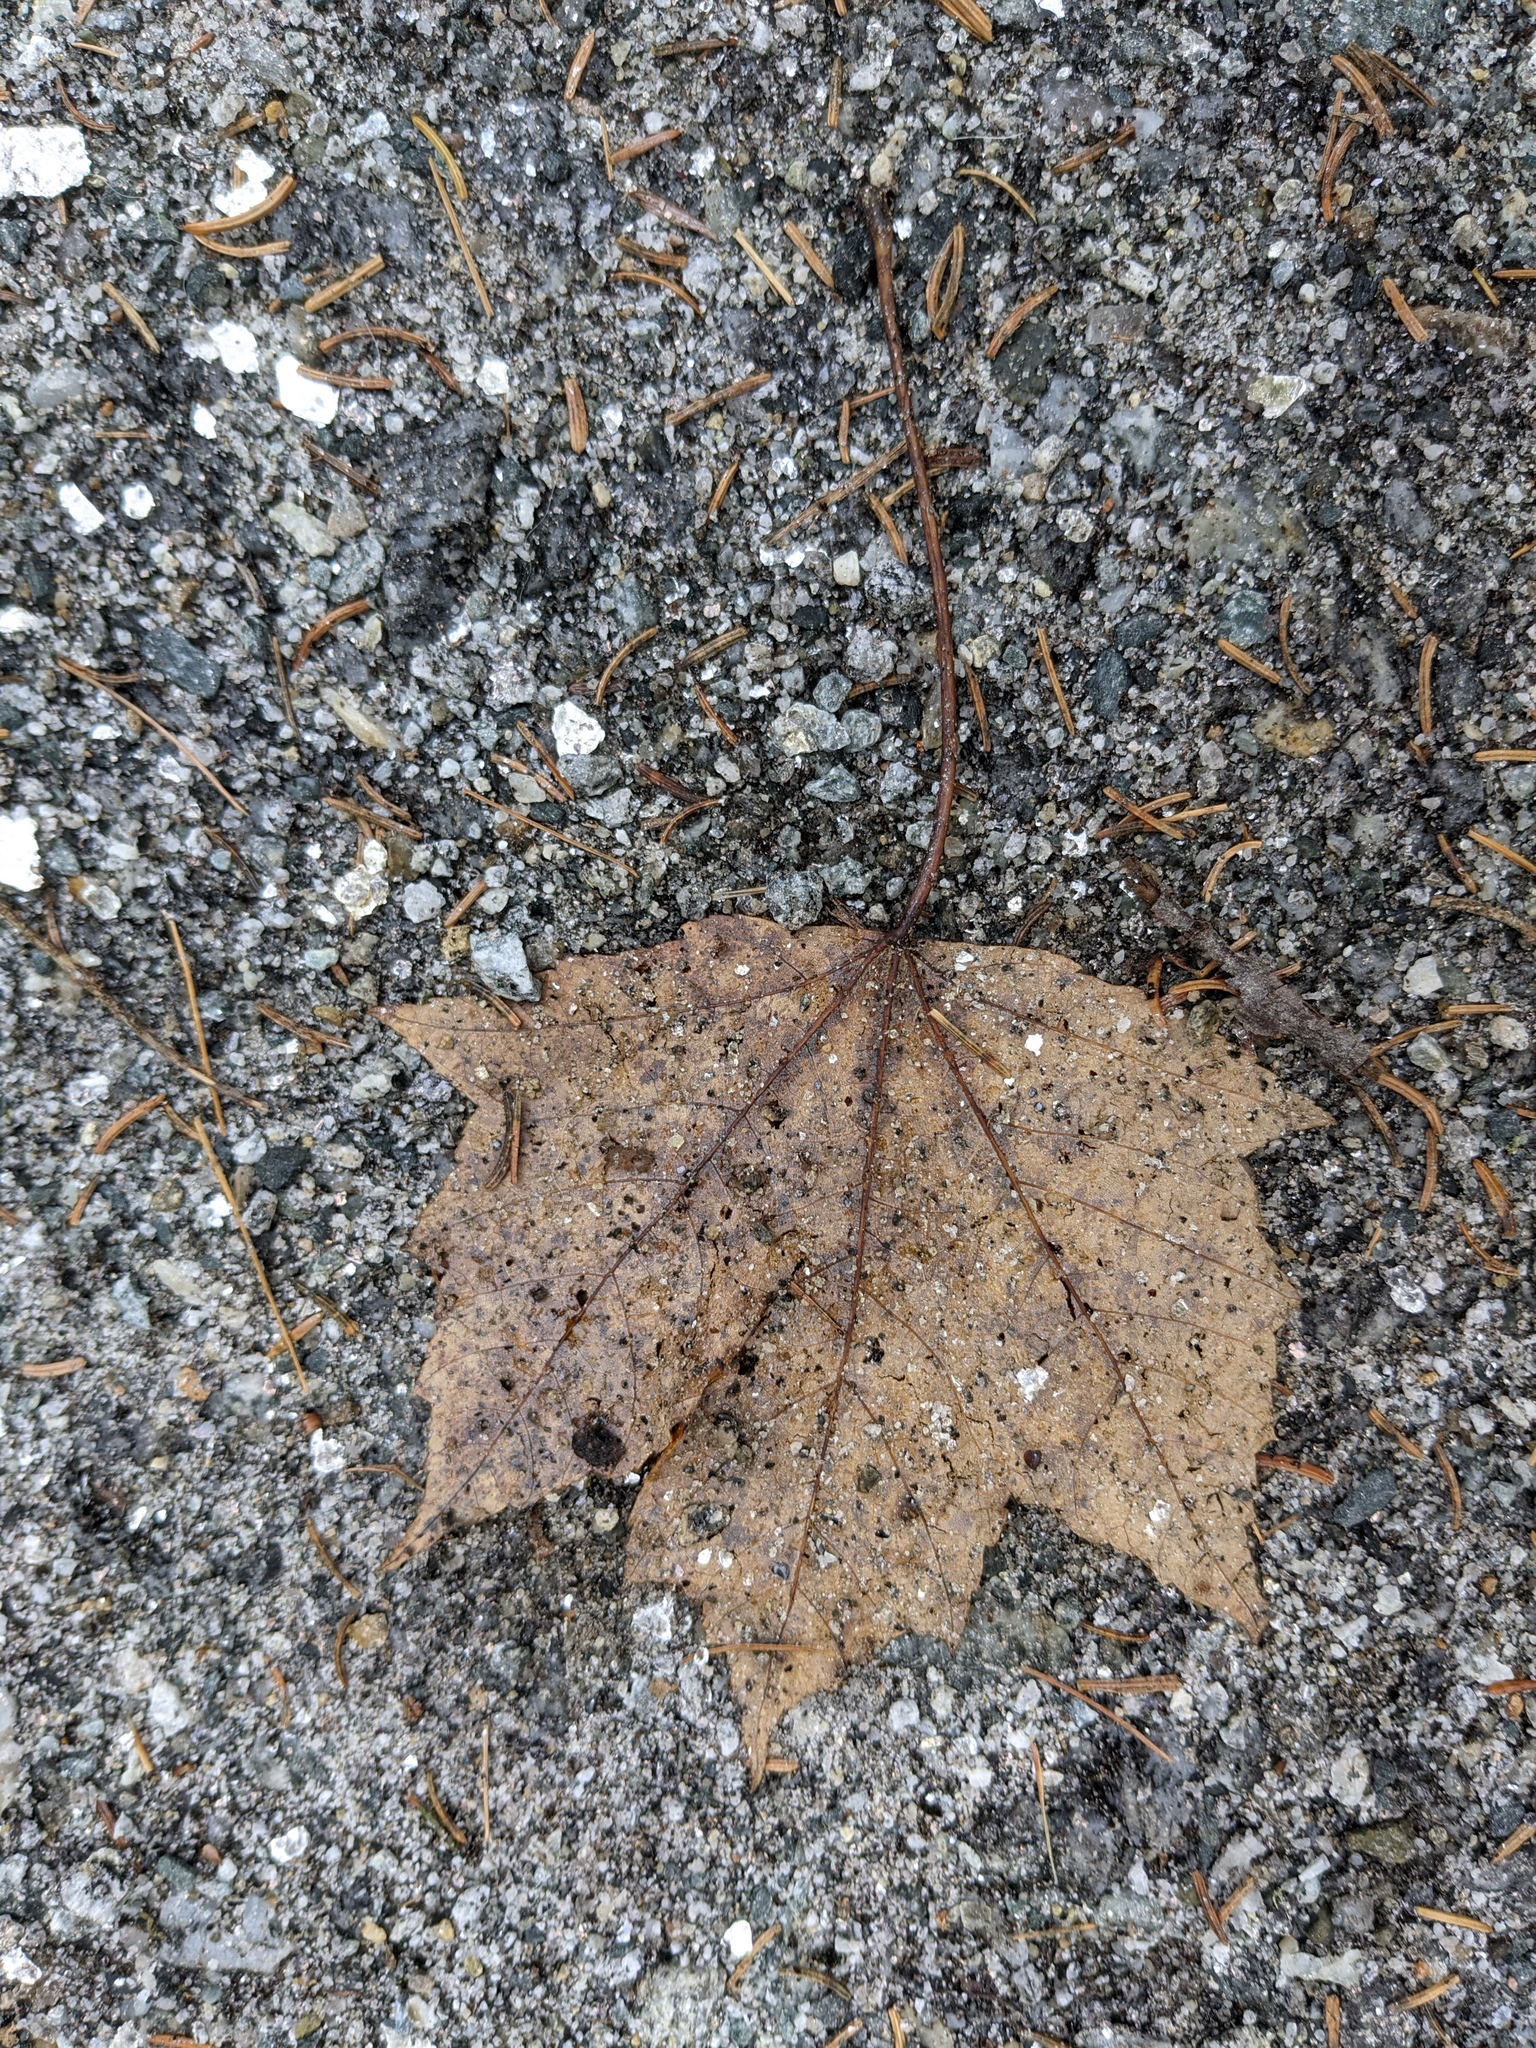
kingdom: Plantae
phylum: Tracheophyta
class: Magnoliopsida
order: Sapindales
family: Sapindaceae
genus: Acer
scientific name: Acer rubrum
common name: Red maple
